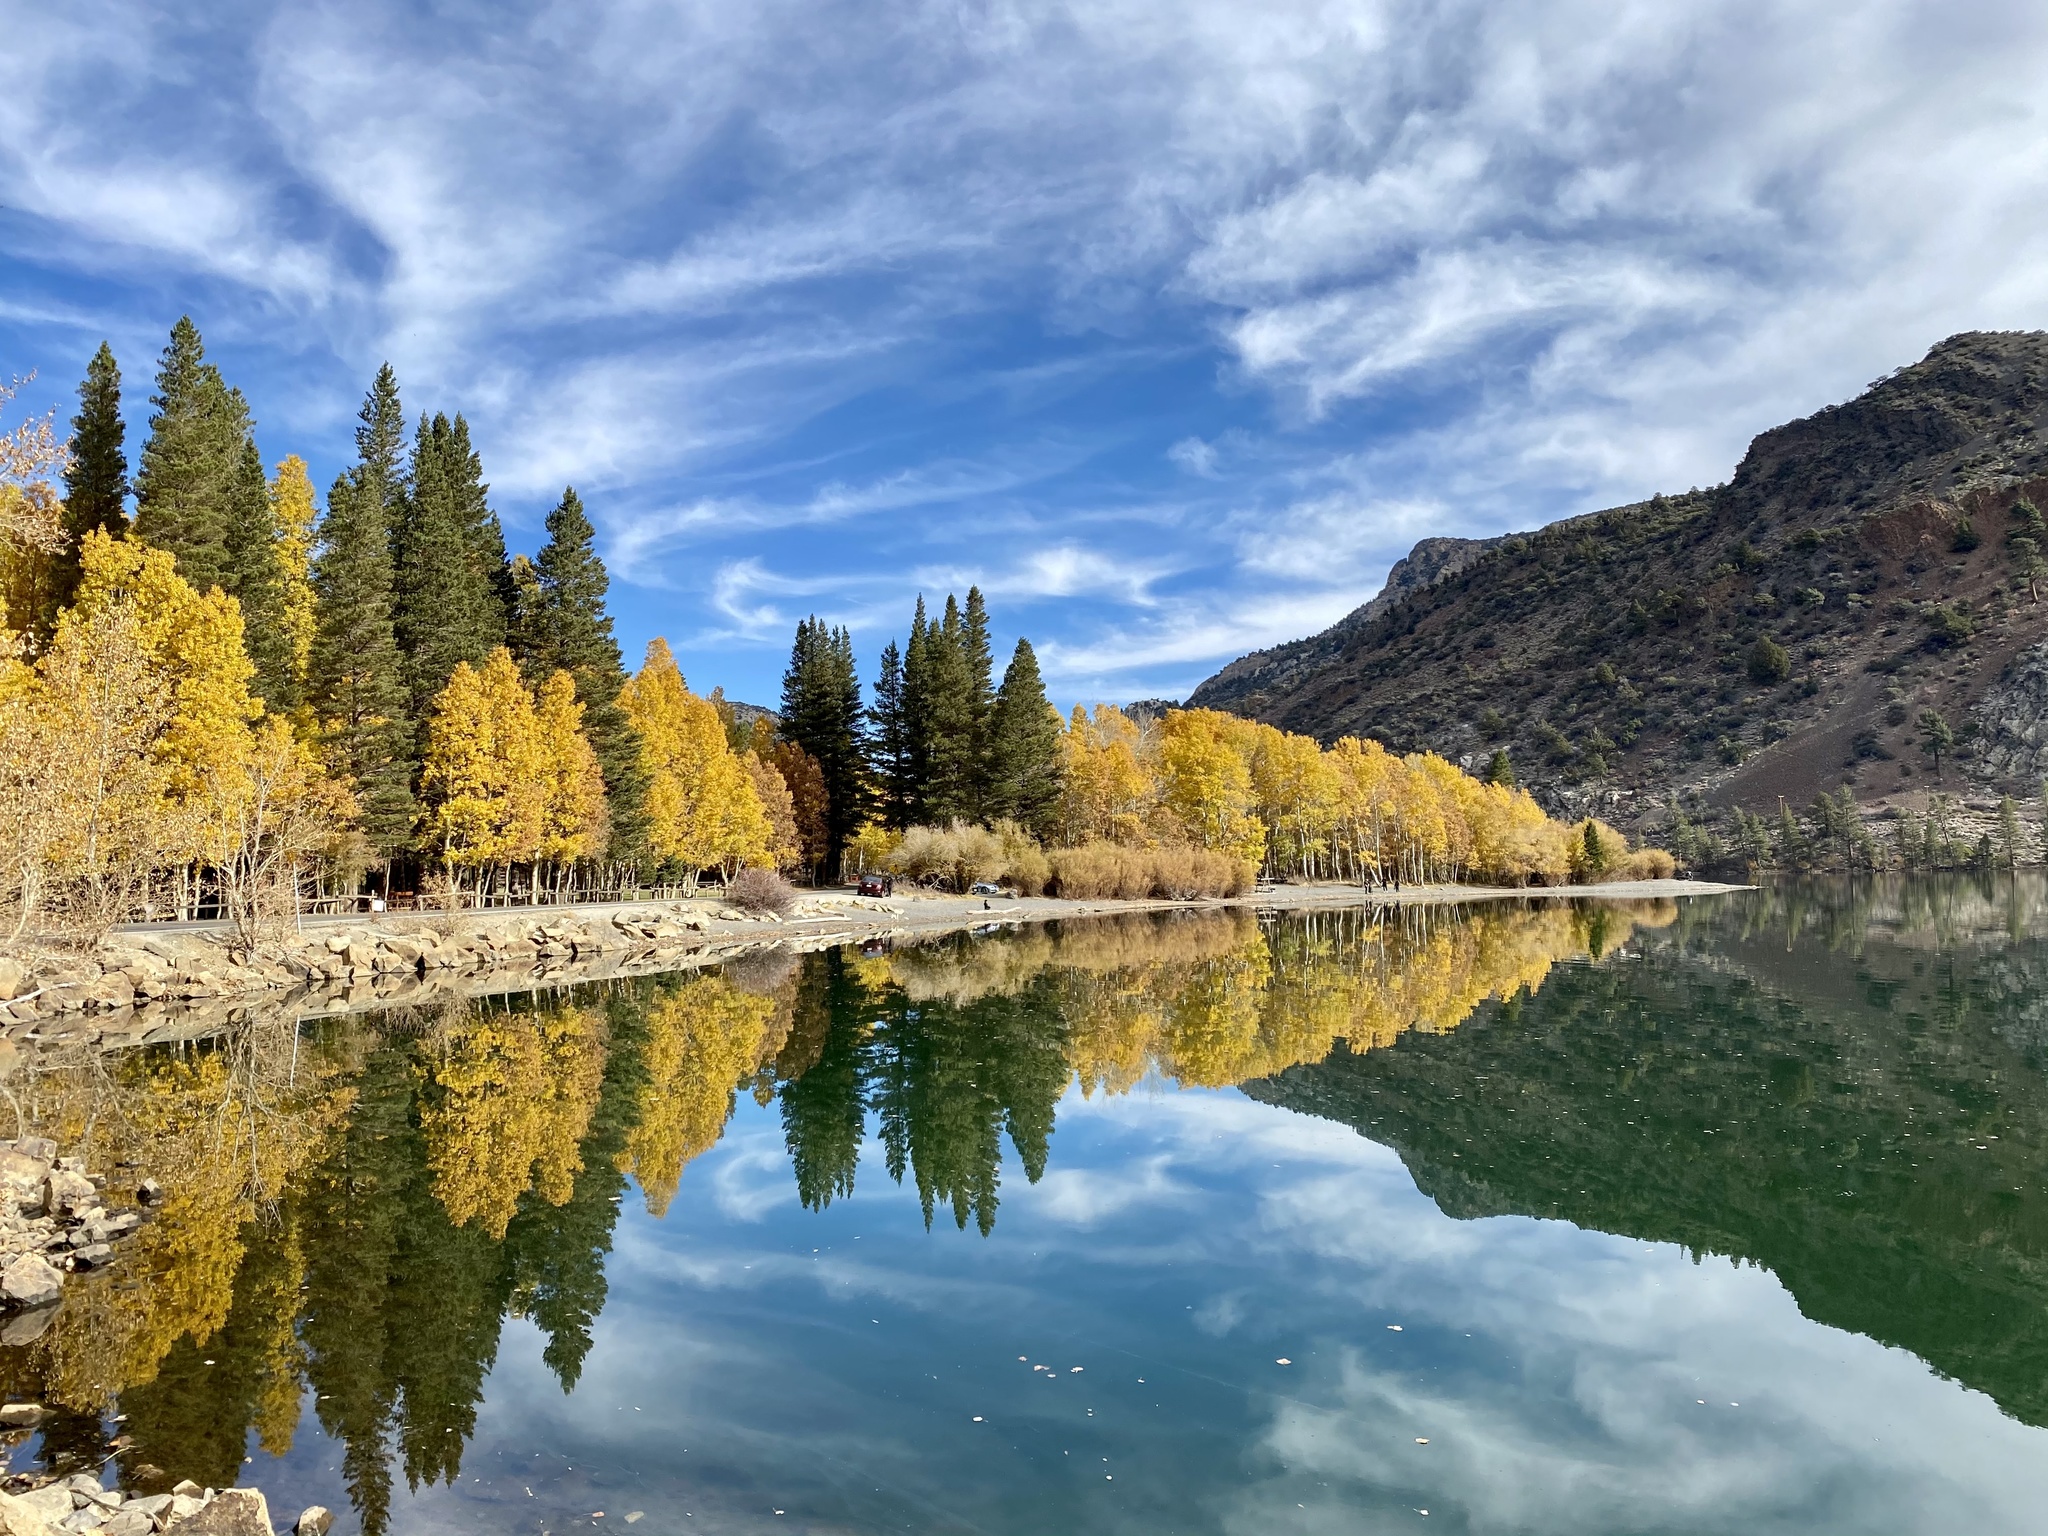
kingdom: Plantae
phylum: Tracheophyta
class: Magnoliopsida
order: Malpighiales
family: Salicaceae
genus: Populus
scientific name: Populus tremuloides
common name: Quaking aspen
